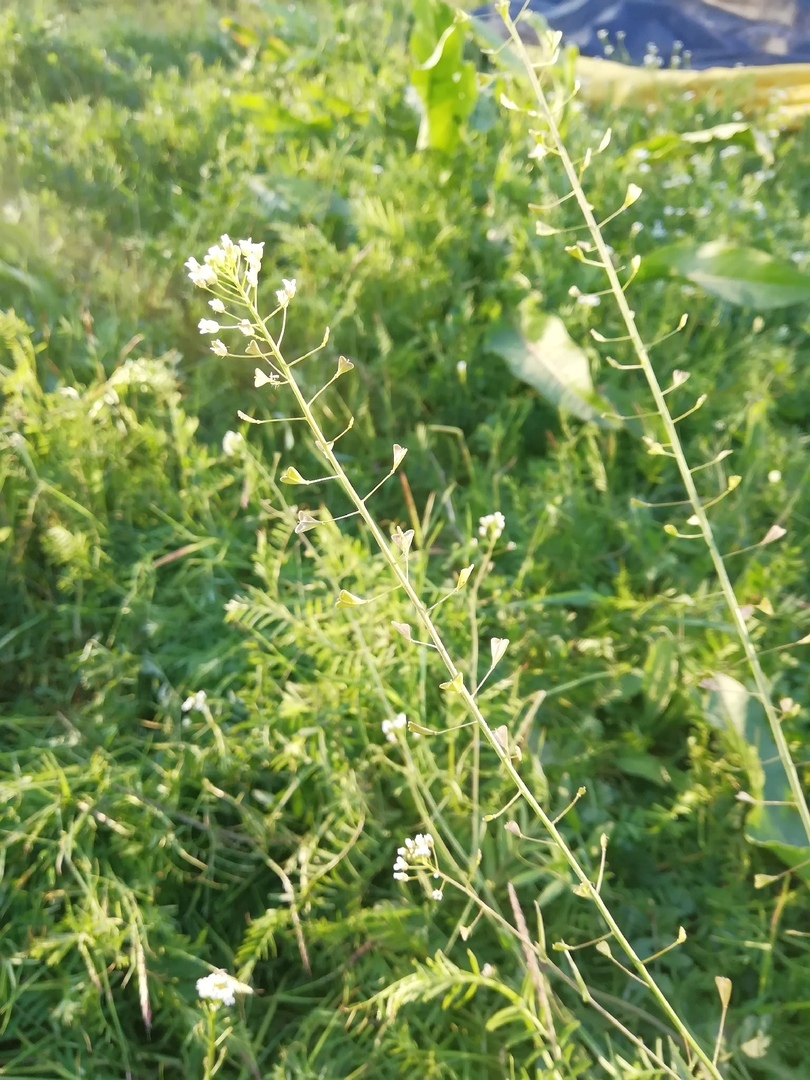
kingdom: Plantae
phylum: Tracheophyta
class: Magnoliopsida
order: Brassicales
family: Brassicaceae
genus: Capsella
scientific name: Capsella bursa-pastoris
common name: Shepherd's purse
